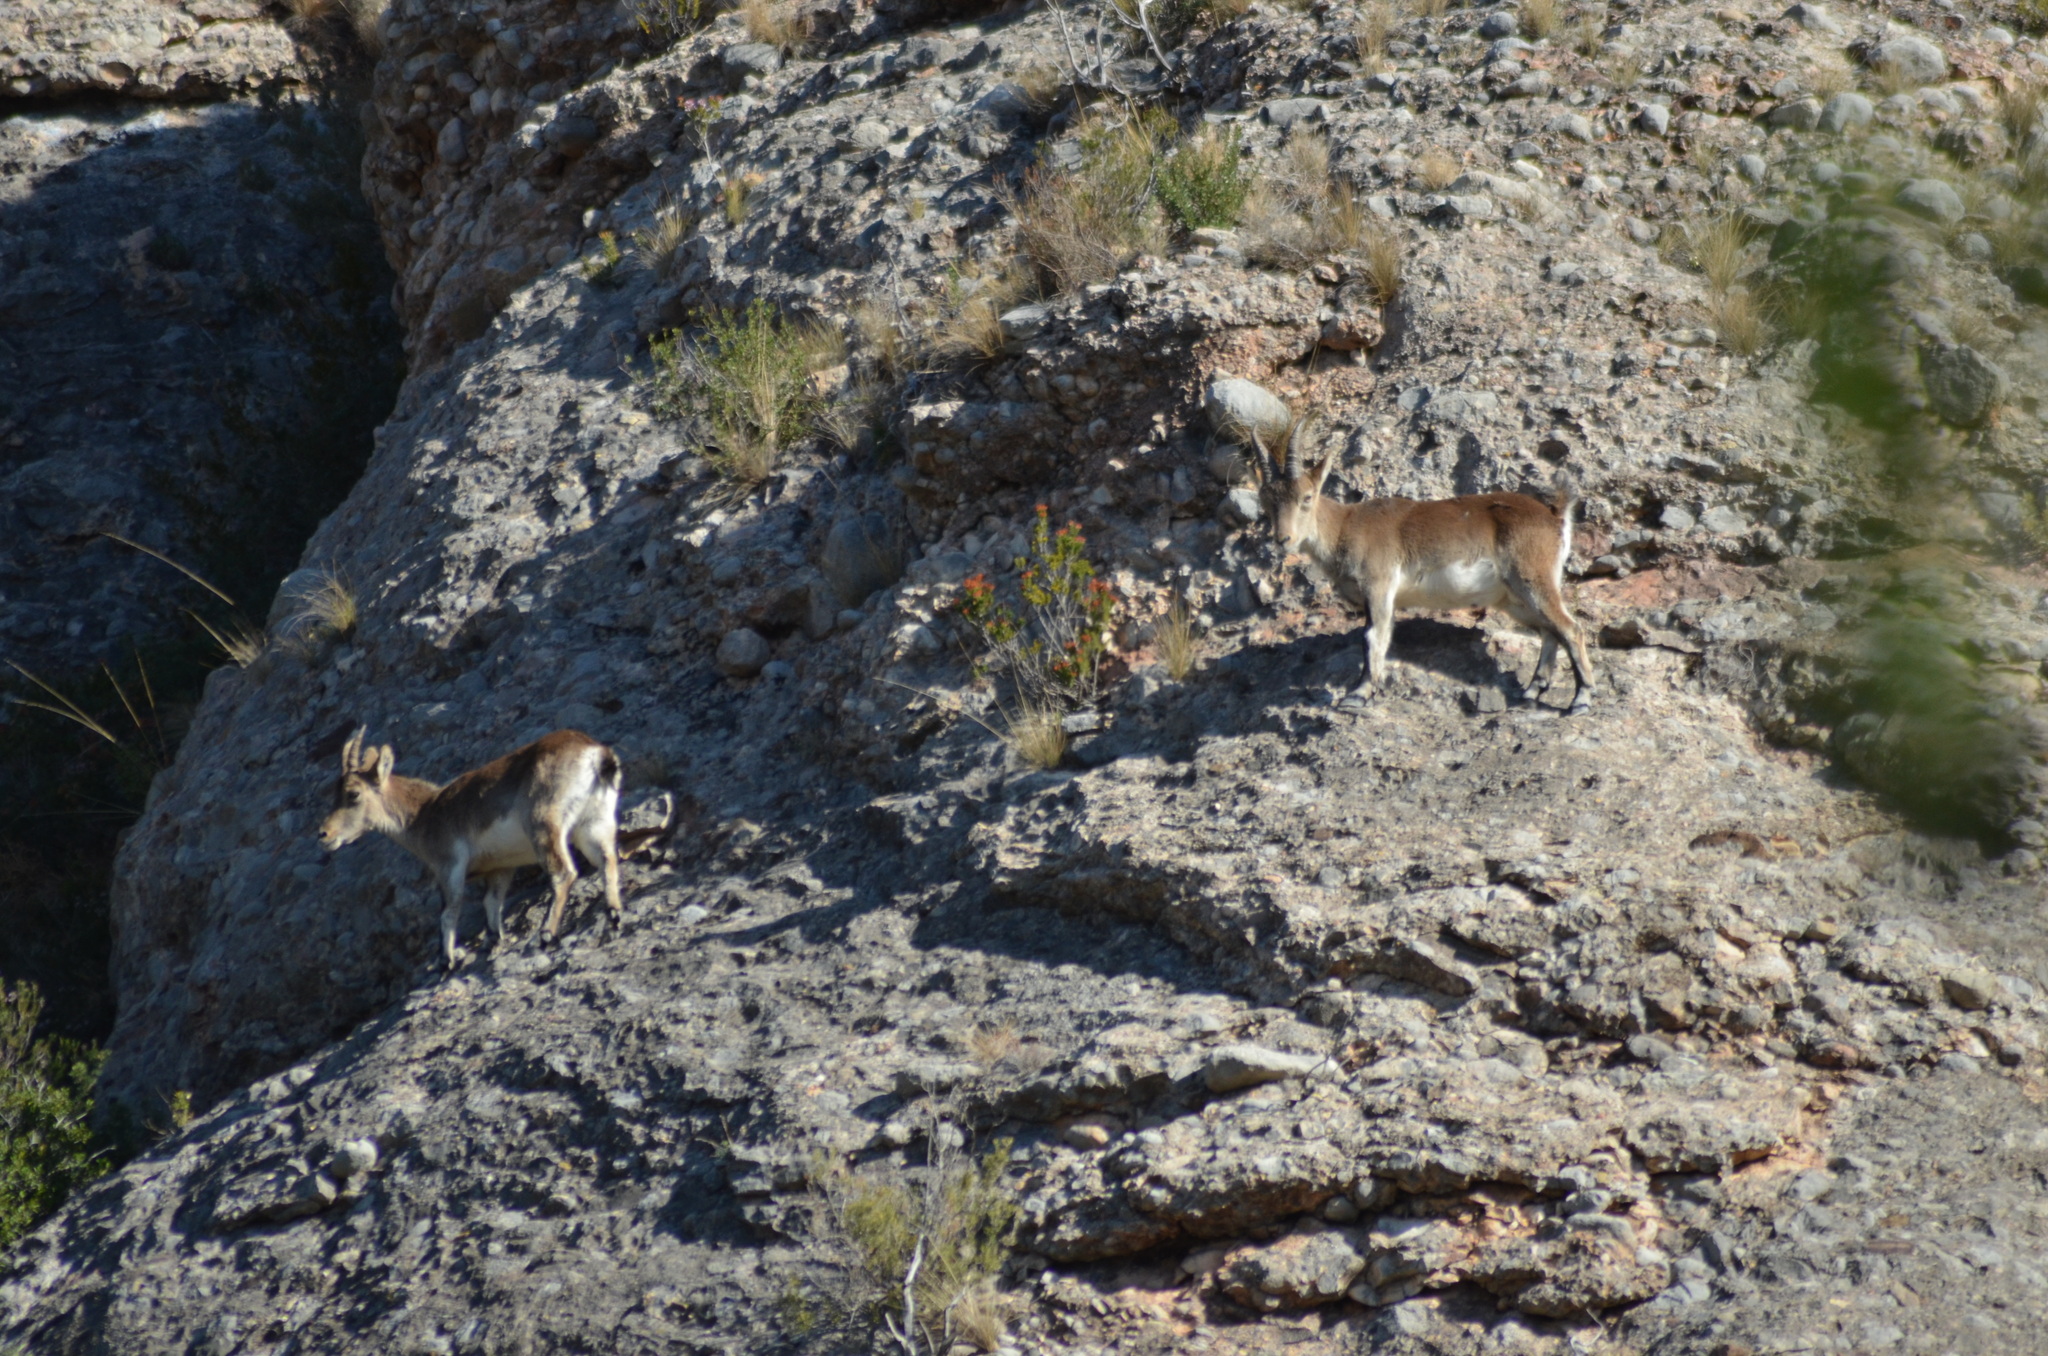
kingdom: Animalia
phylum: Chordata
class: Mammalia
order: Artiodactyla
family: Bovidae
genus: Capra
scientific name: Capra pyrenaica
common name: Spanish ibex
